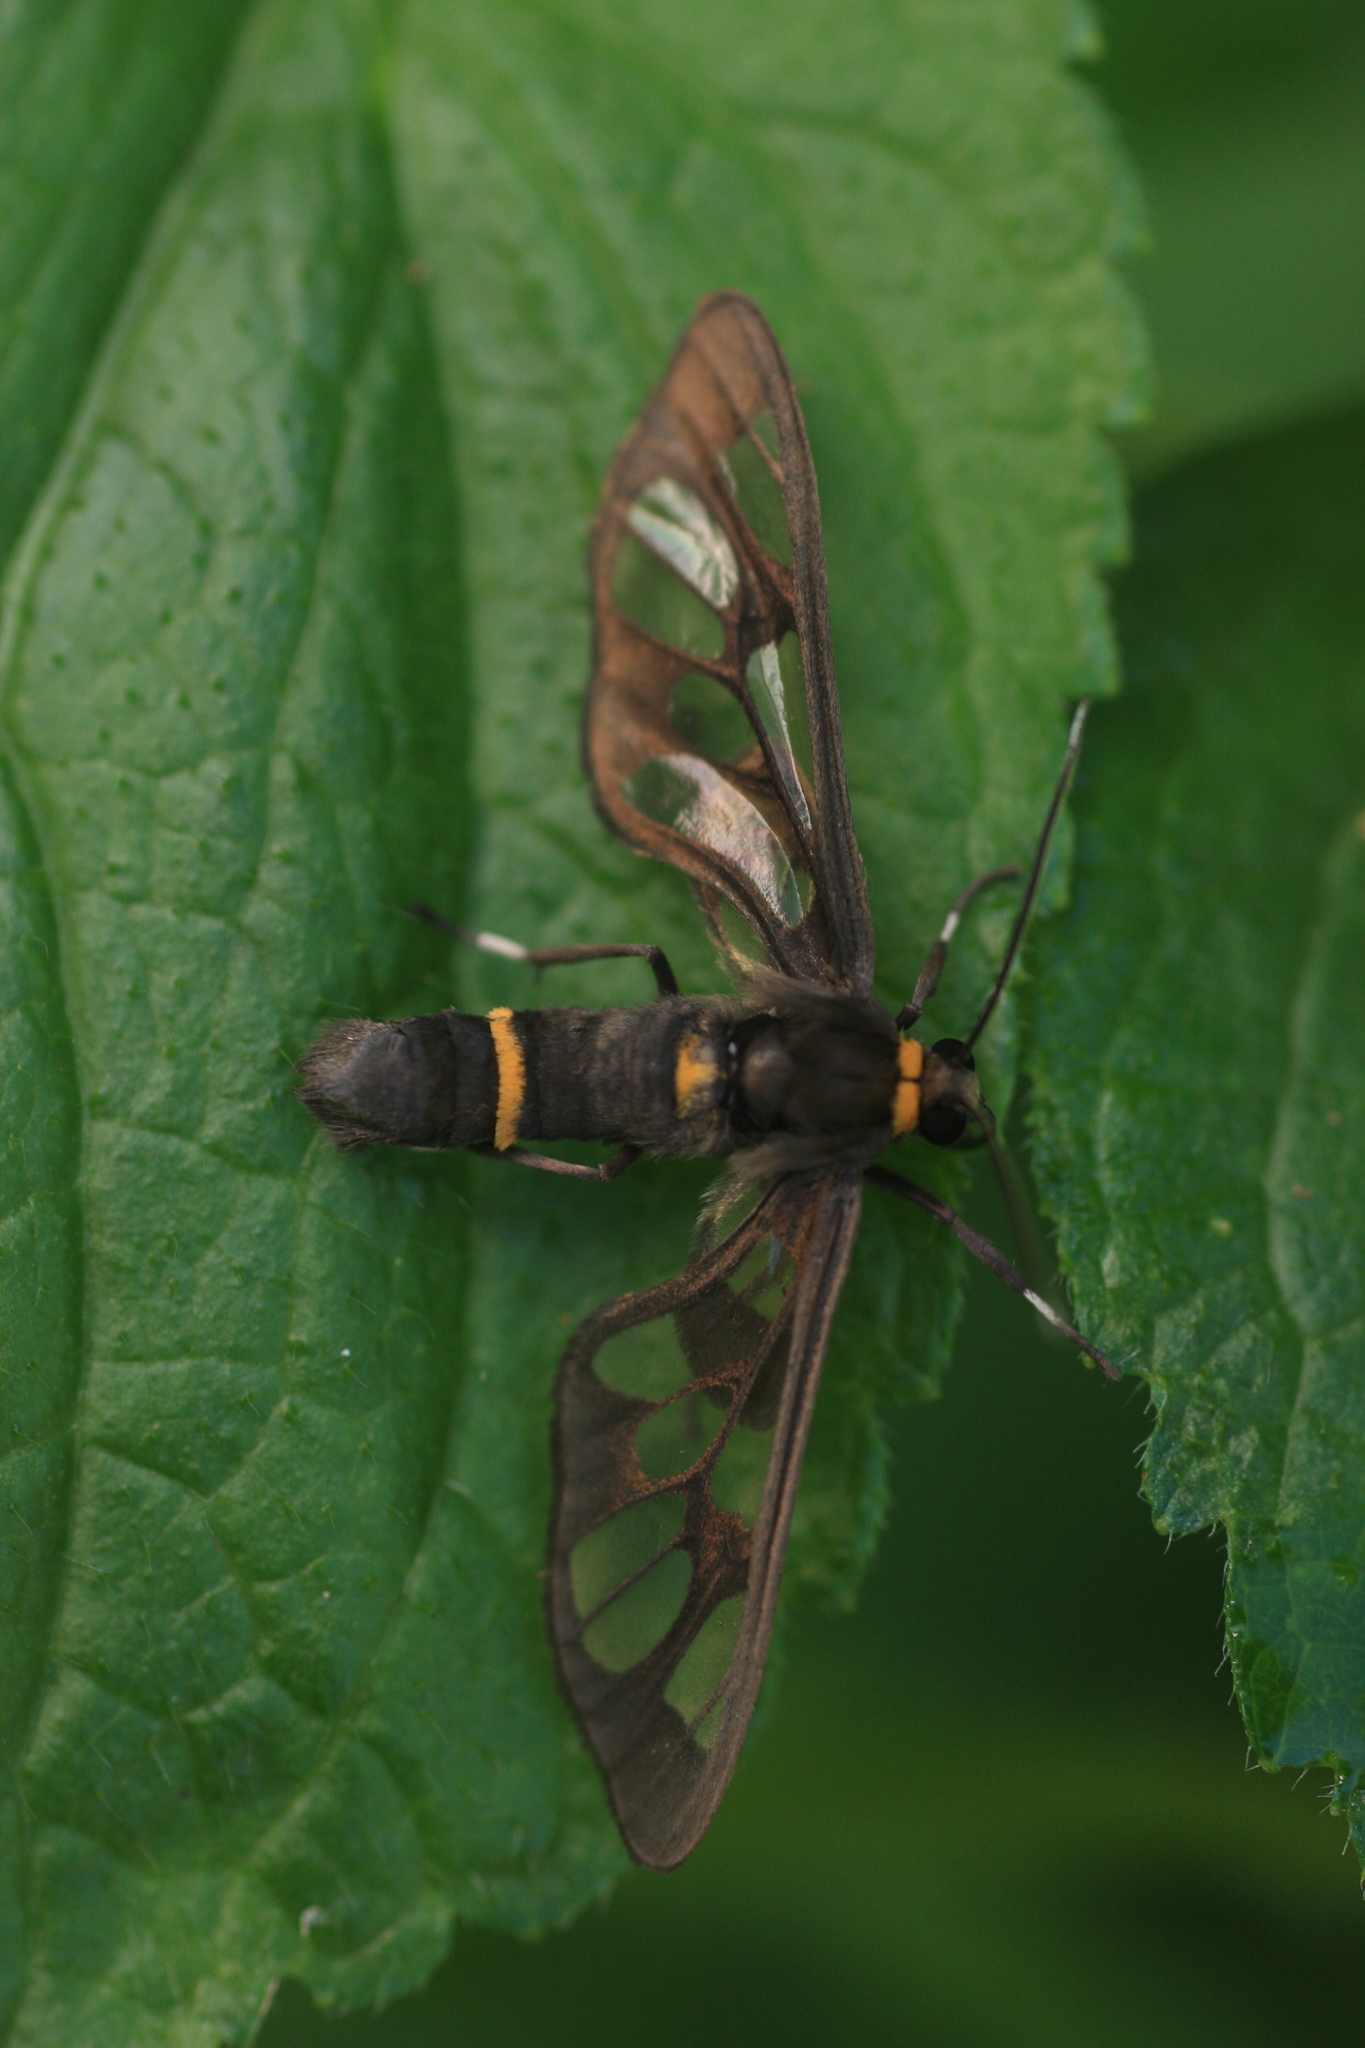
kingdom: Animalia
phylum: Arthropoda
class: Insecta
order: Lepidoptera
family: Erebidae
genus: Syntomoides
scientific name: Syntomoides imaon
